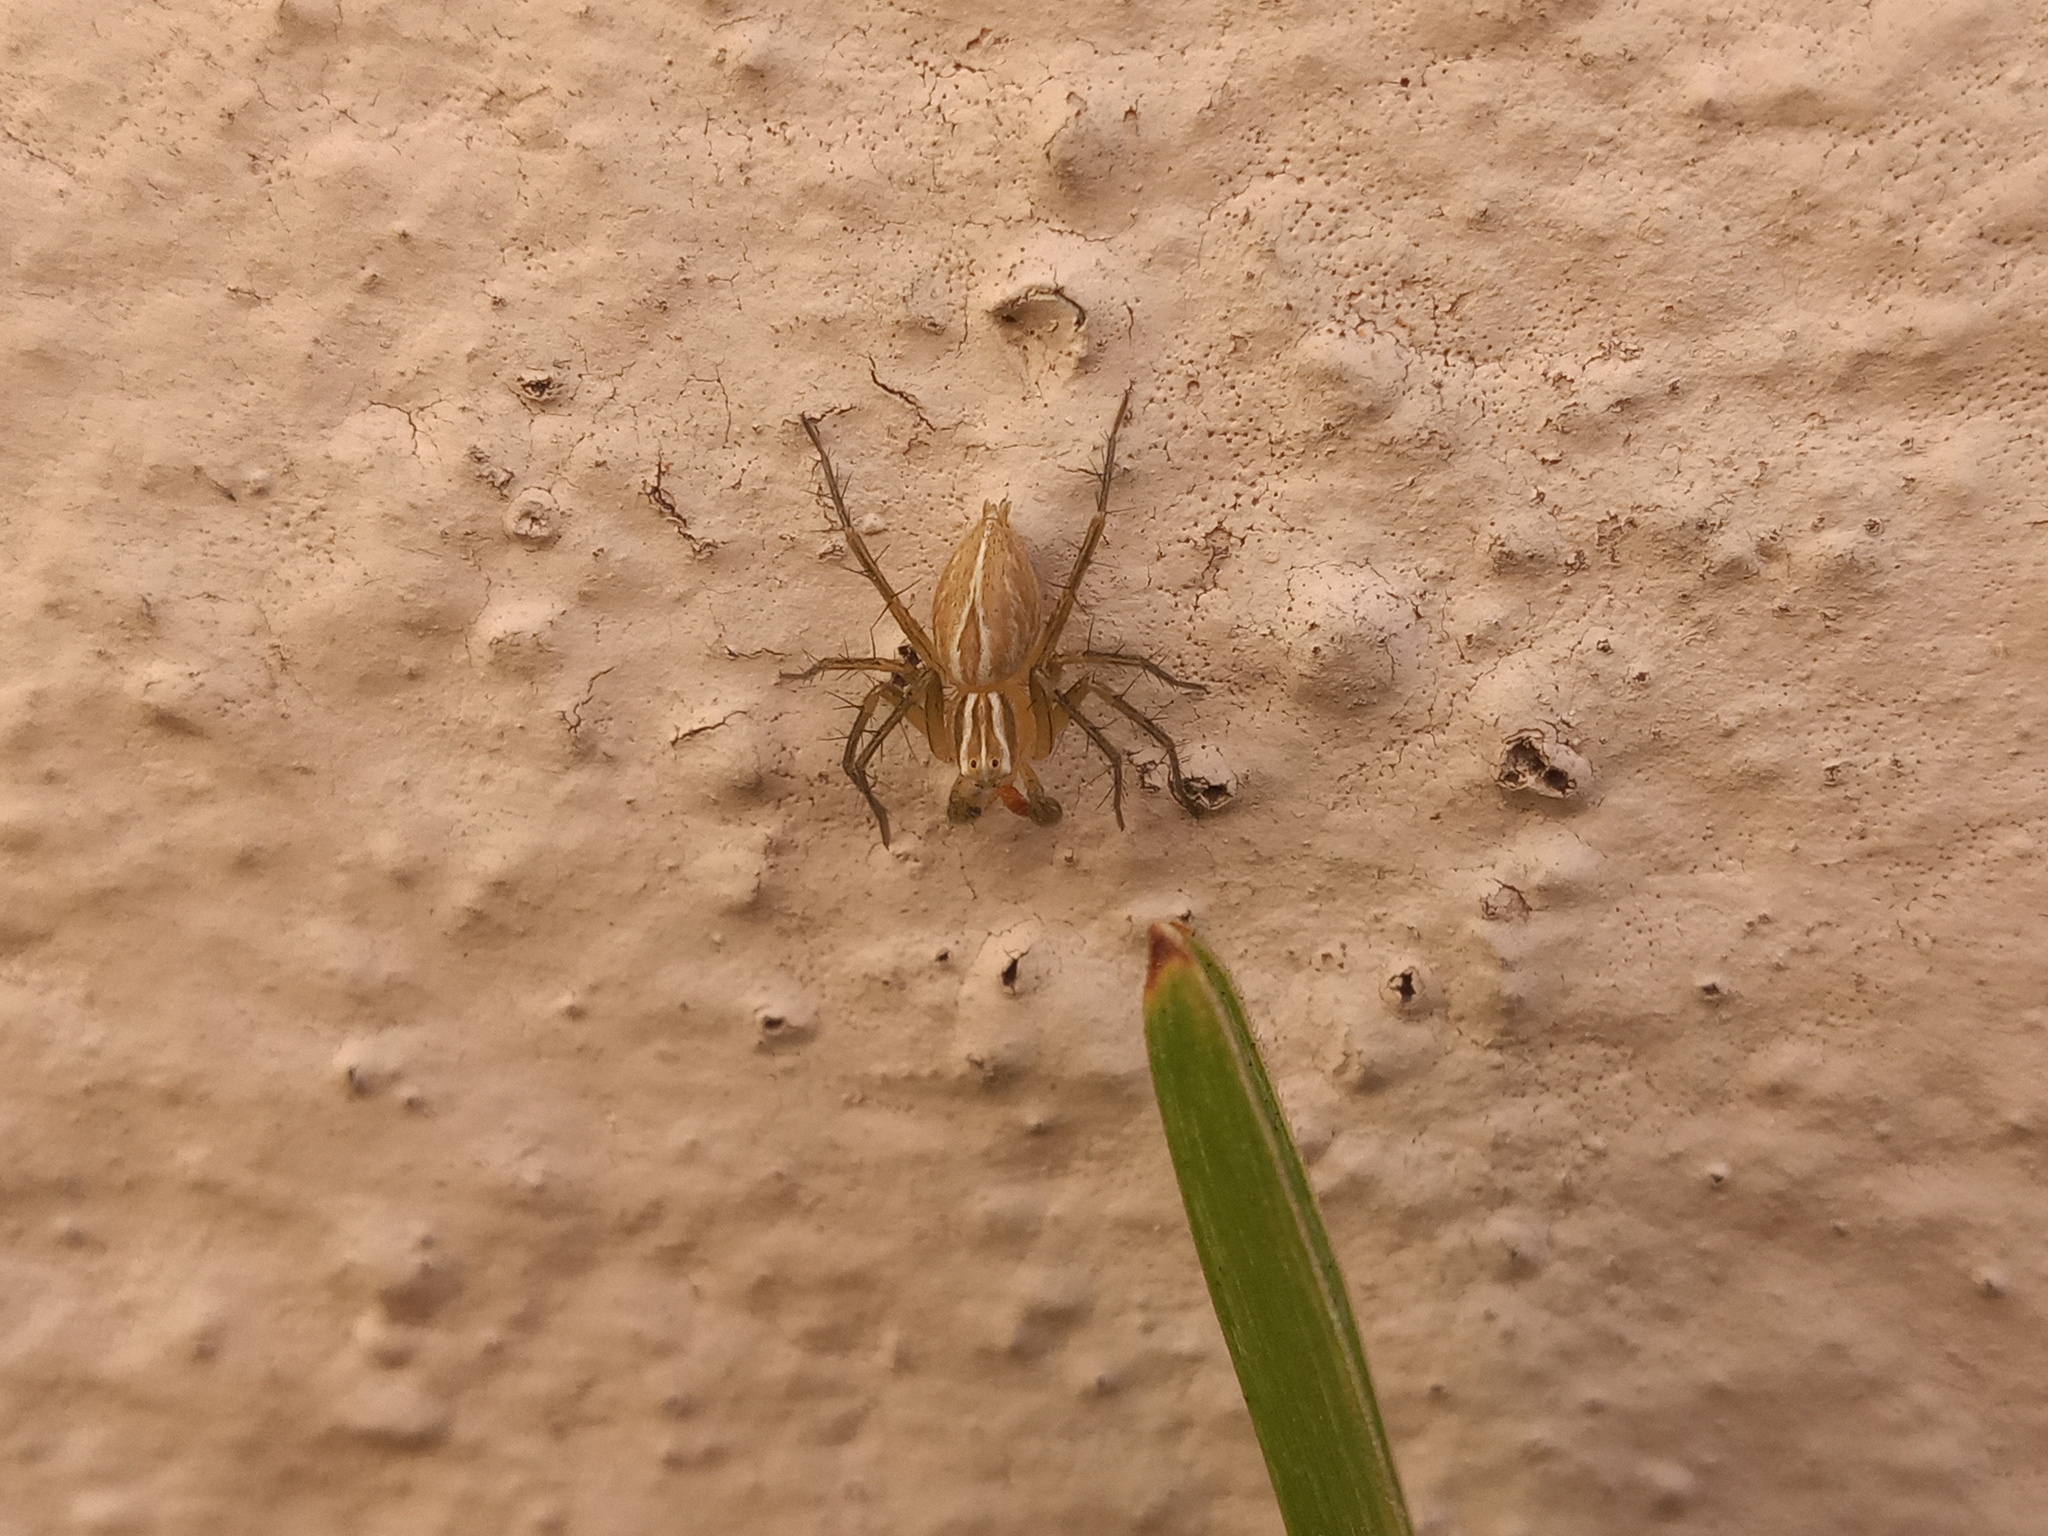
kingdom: Animalia
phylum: Arthropoda
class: Arachnida
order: Araneae
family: Oxyopidae
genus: Oxyopes
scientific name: Oxyopes salticus
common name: Lynx spiders
